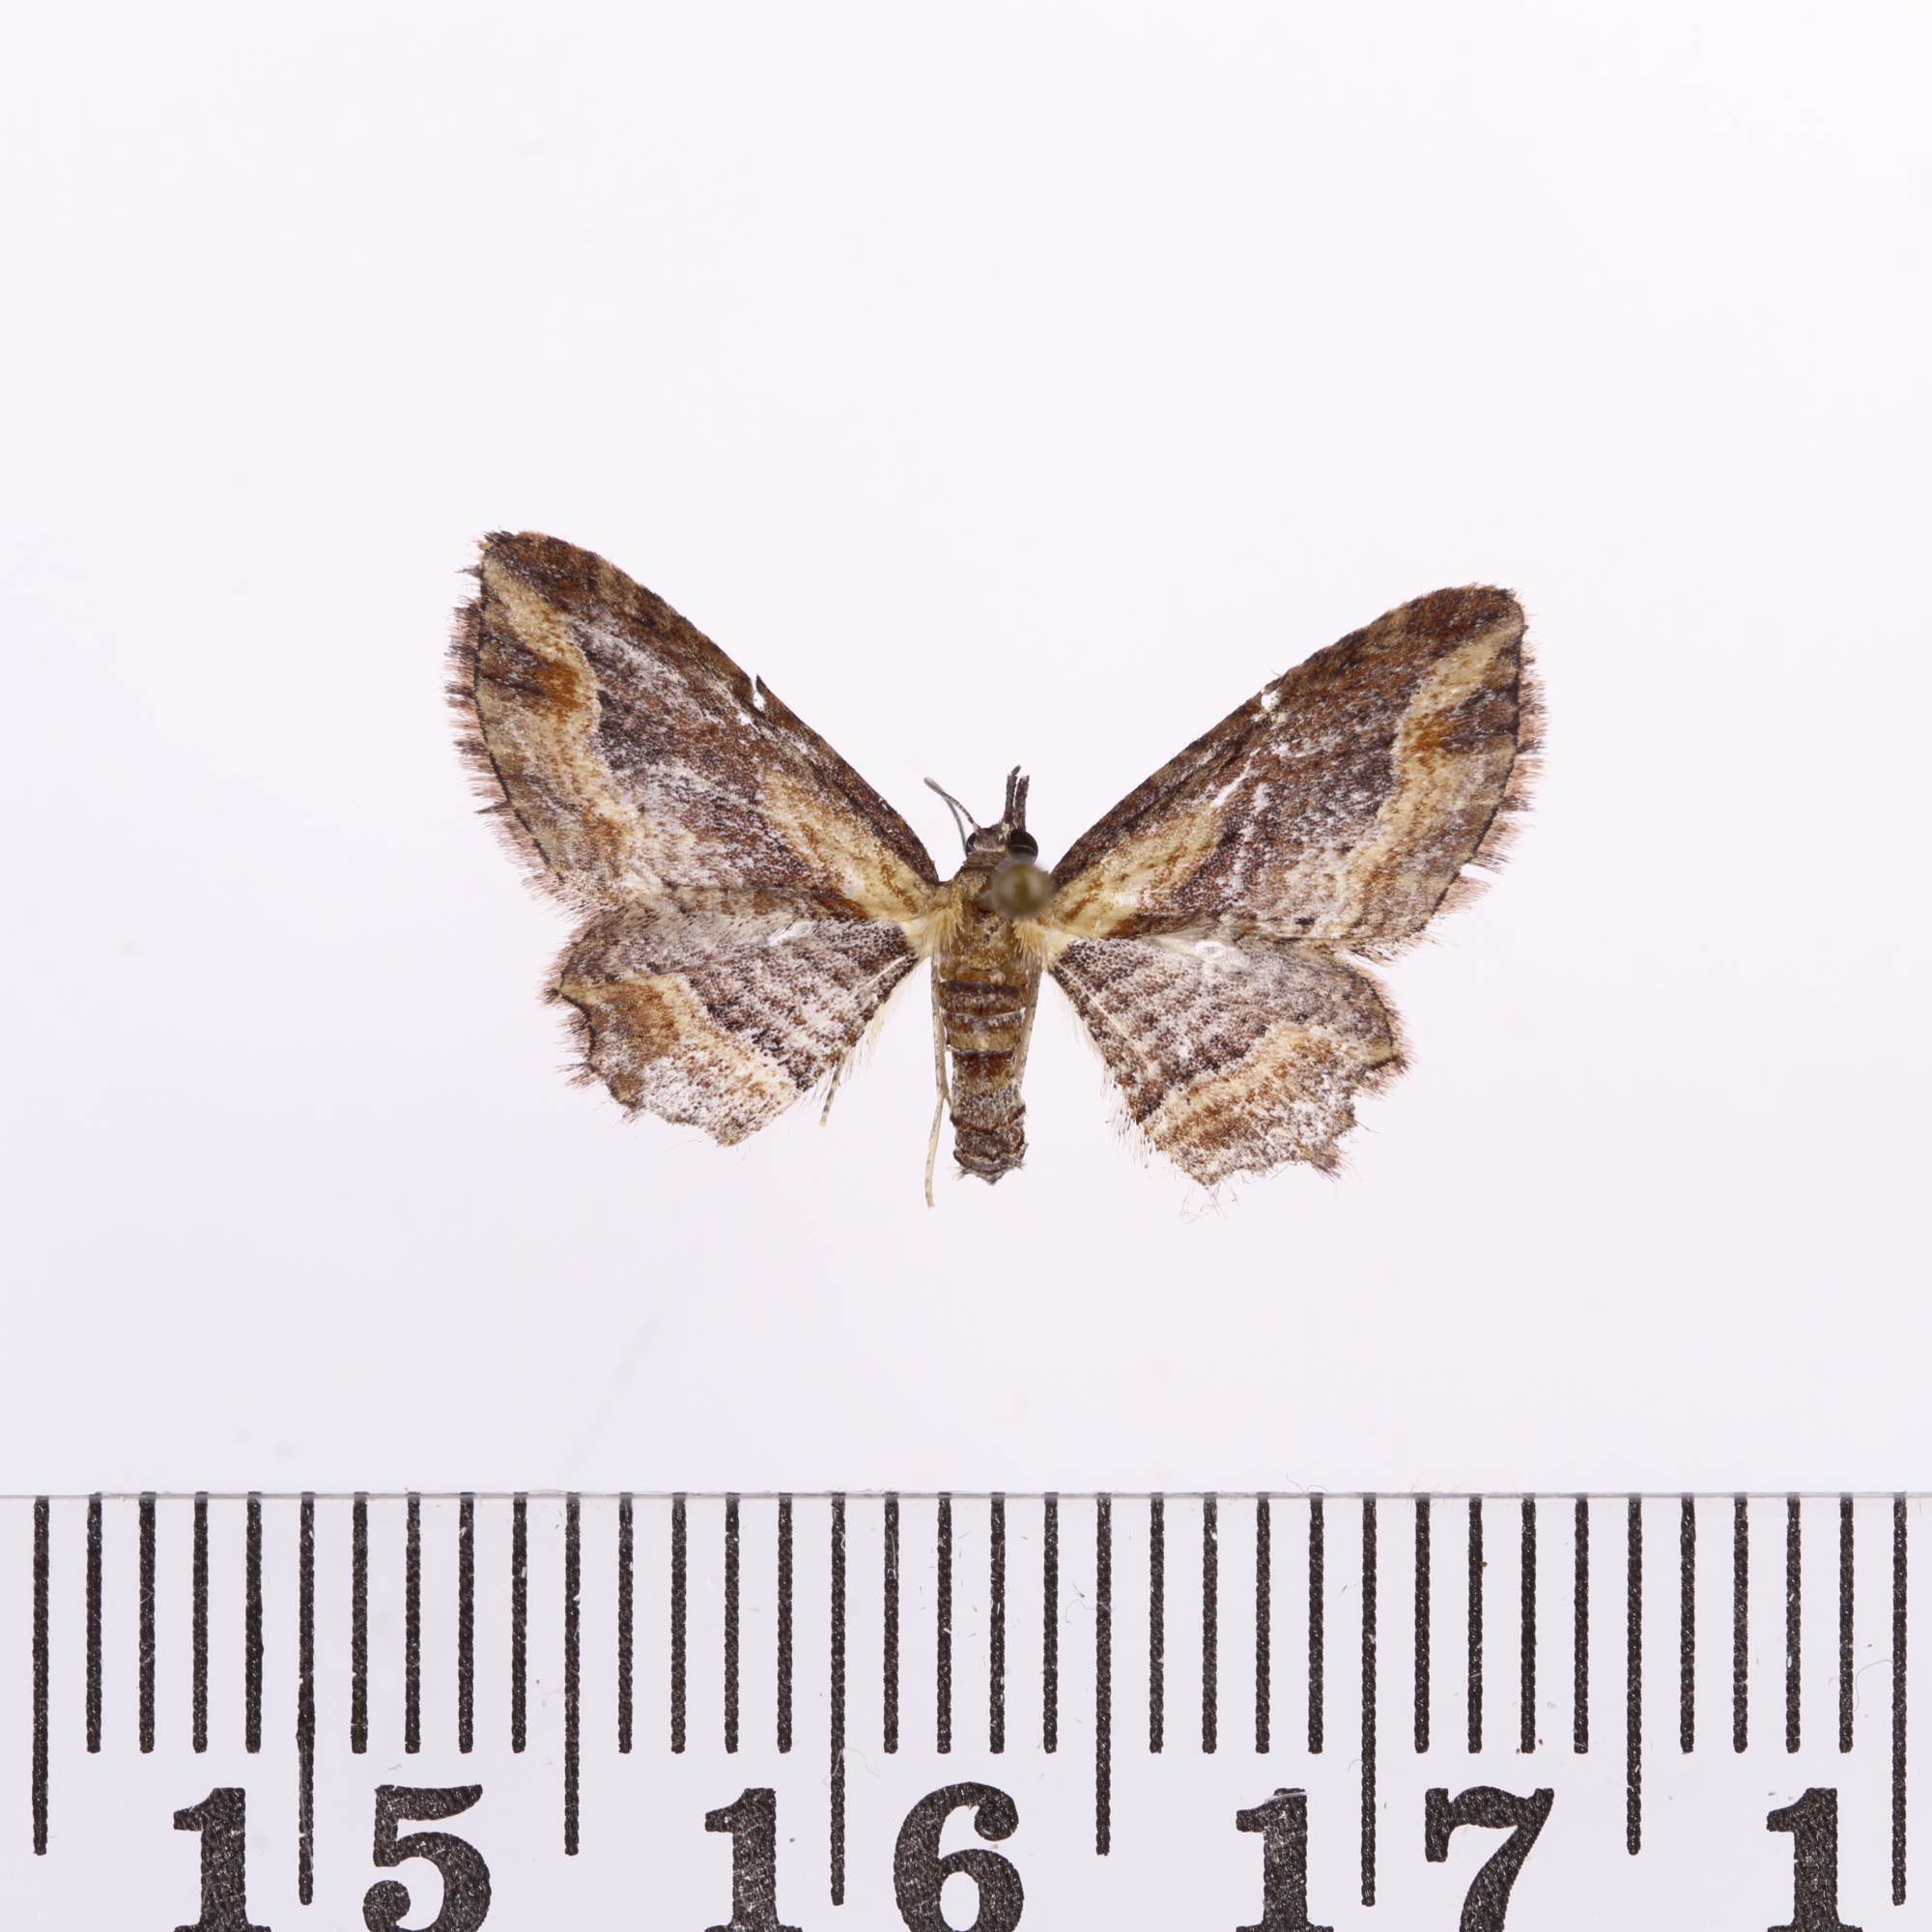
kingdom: Animalia
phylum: Arthropoda
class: Insecta
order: Lepidoptera
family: Geometridae
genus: Chloroclystis
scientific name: Chloroclystis filata
